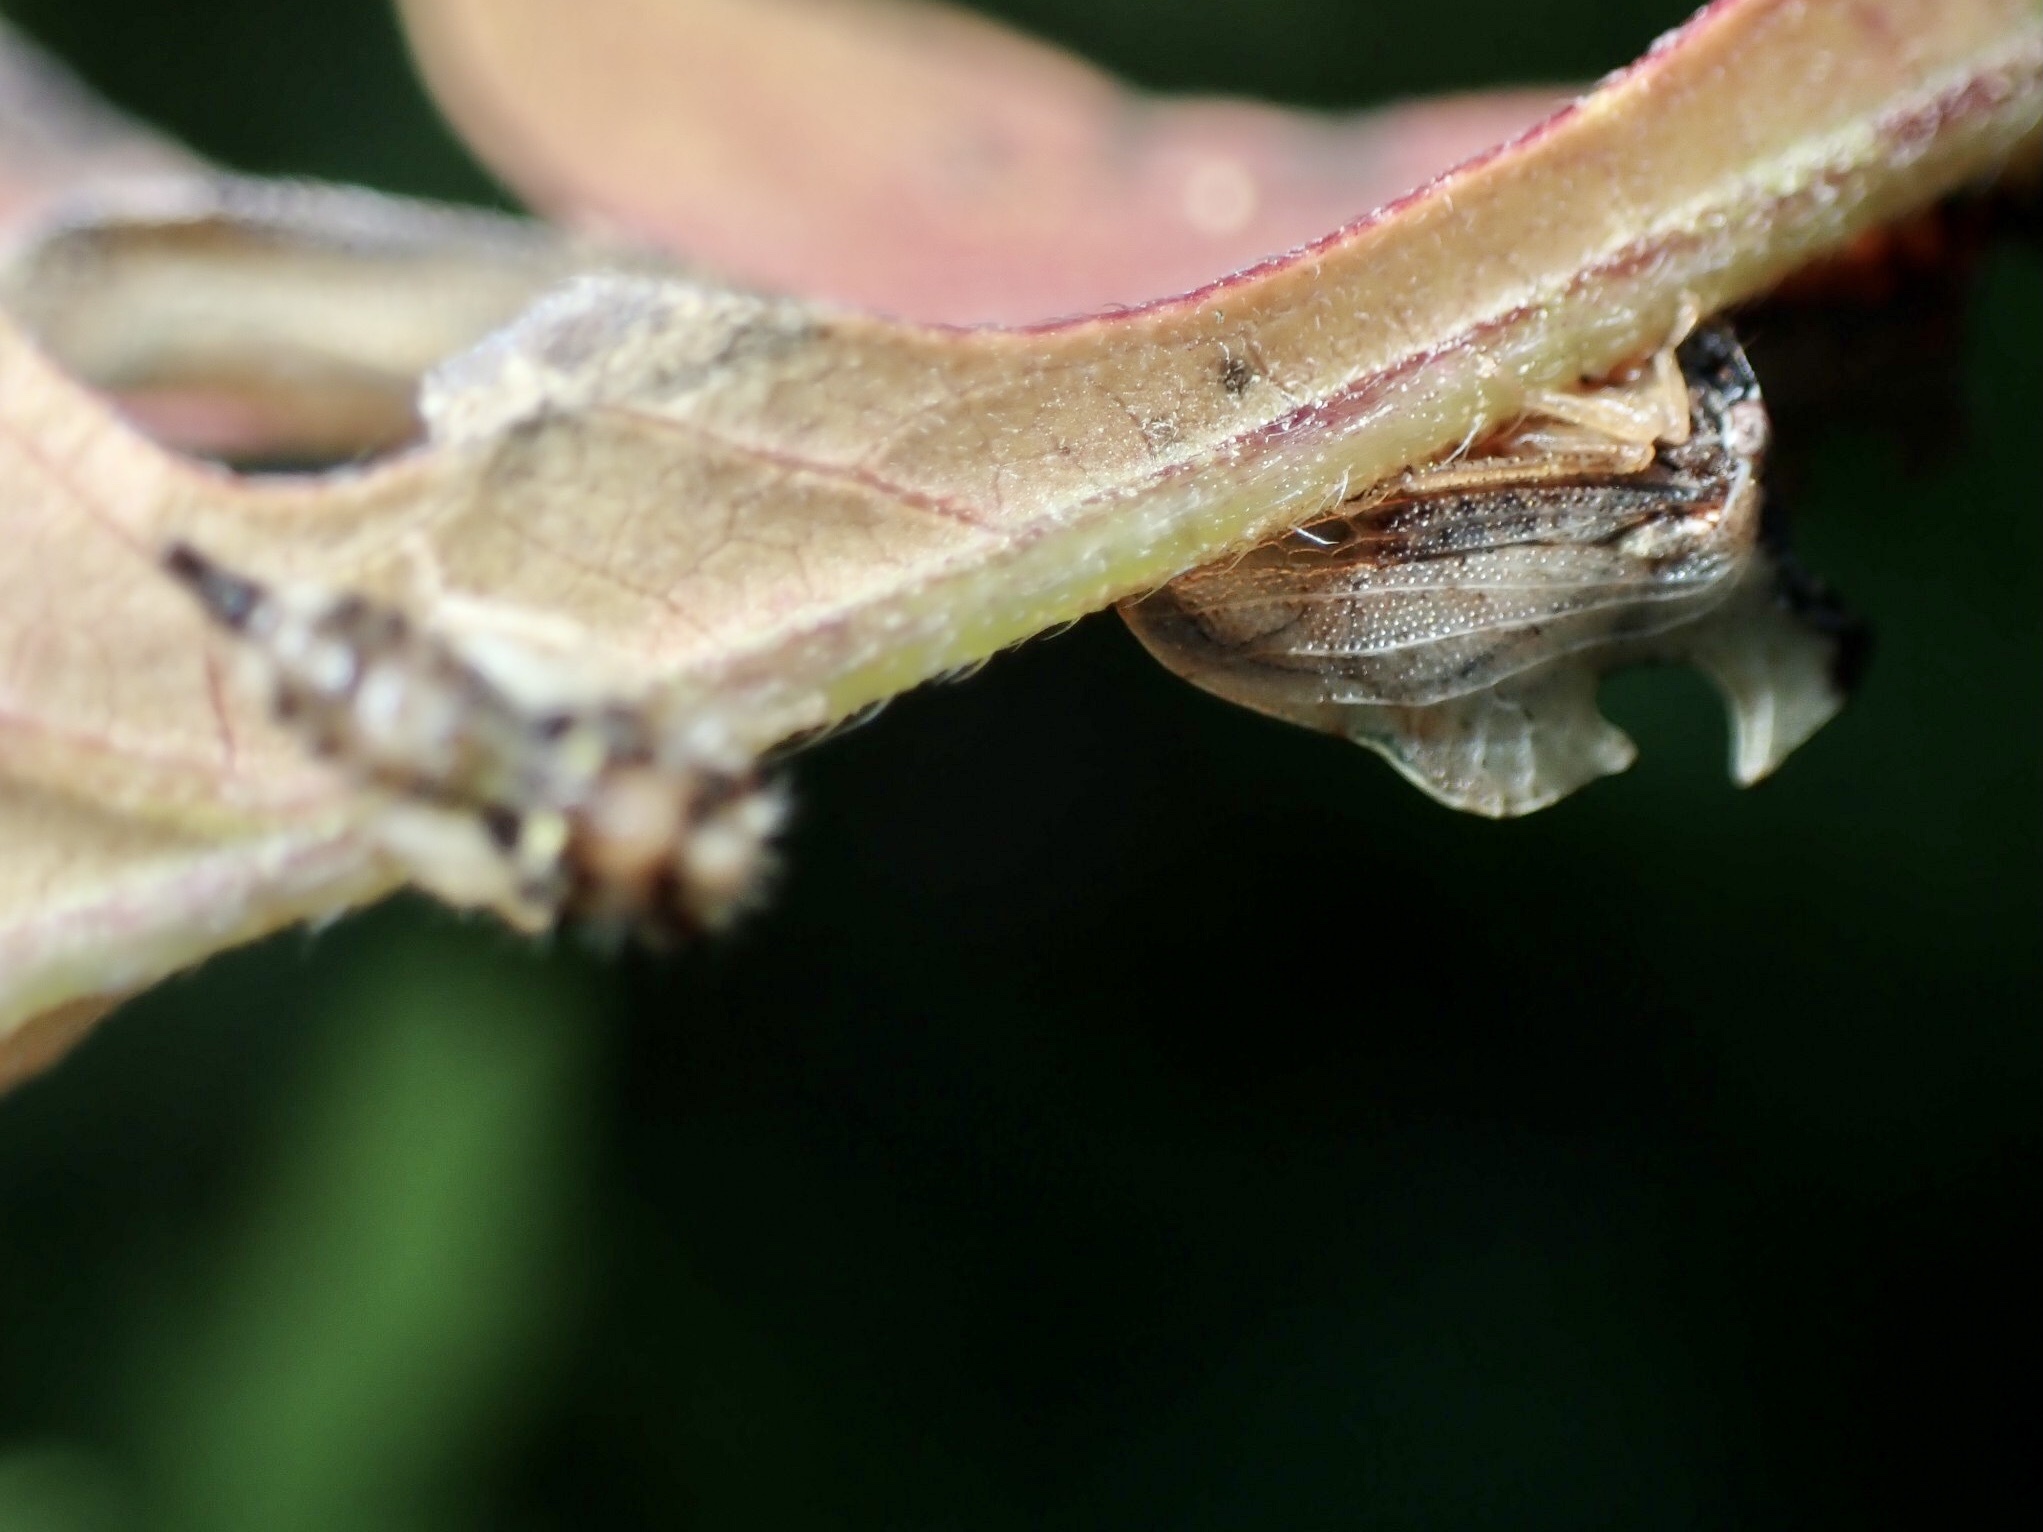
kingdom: Animalia
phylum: Arthropoda
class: Insecta
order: Hemiptera
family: Membracidae
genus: Entylia
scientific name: Entylia carinata
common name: Keeled treehopper
